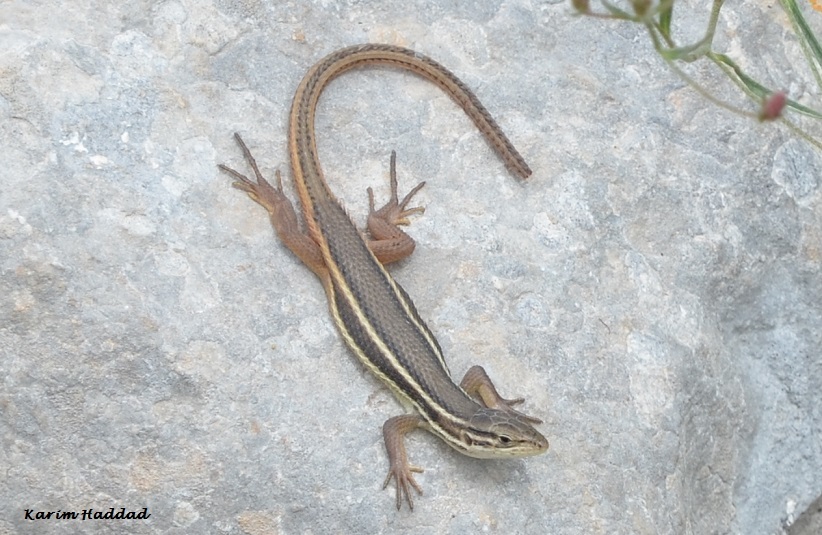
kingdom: Animalia
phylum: Chordata
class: Squamata
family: Lacertidae
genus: Psammodromus
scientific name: Psammodromus algirus
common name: Algerian psammodromus
